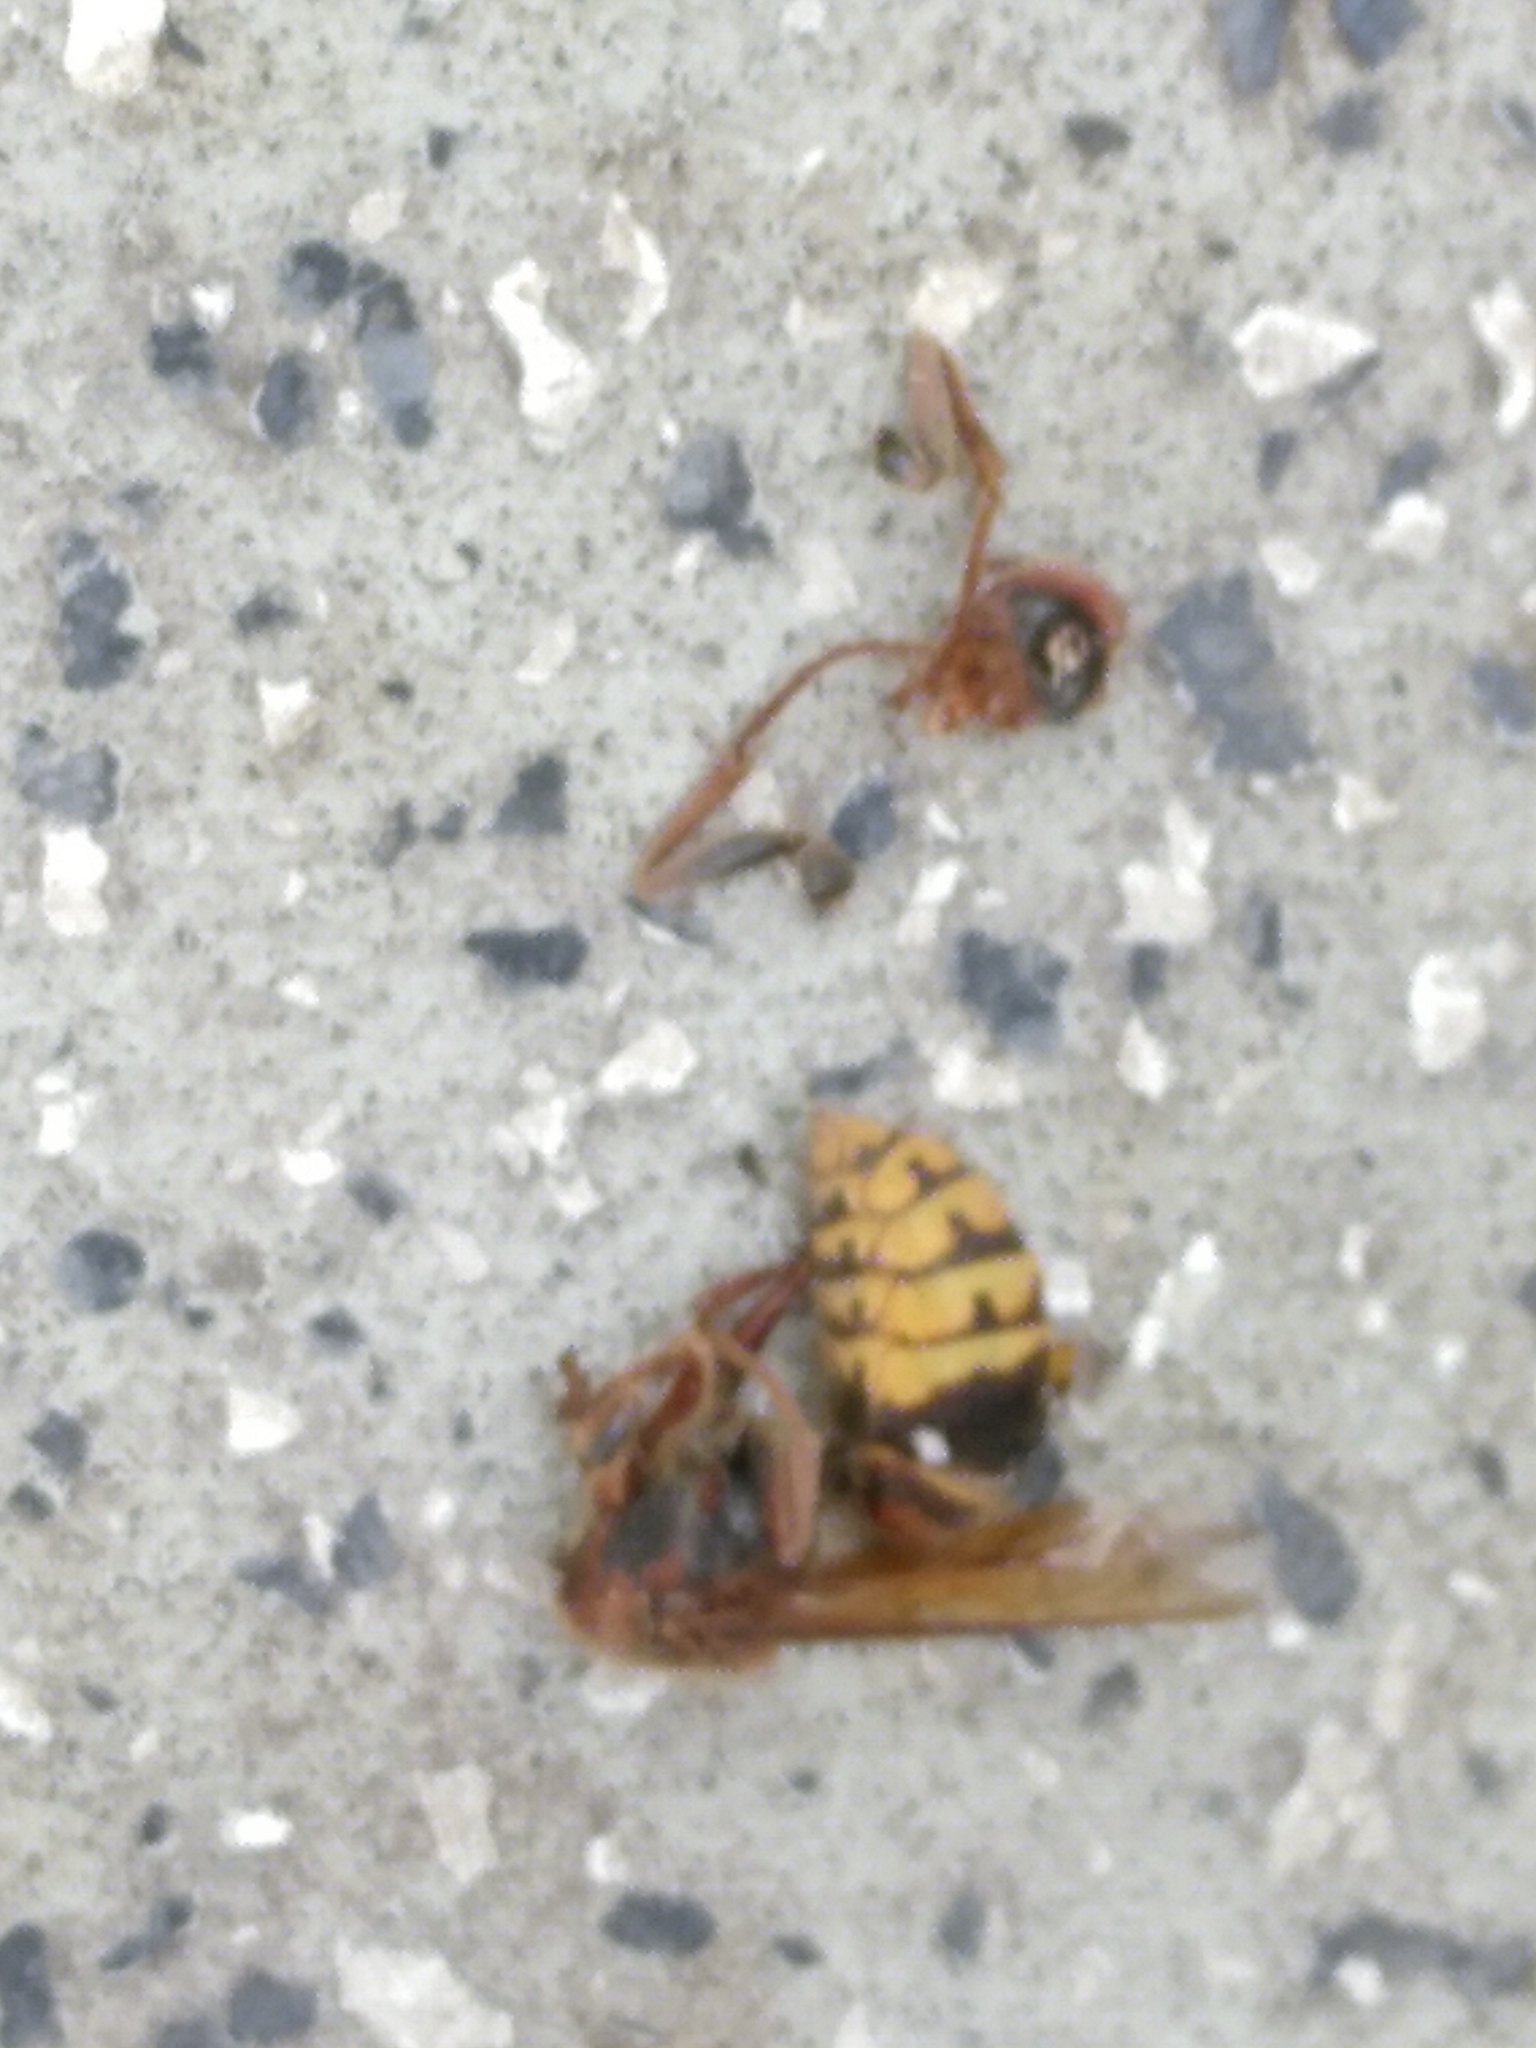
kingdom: Animalia
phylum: Arthropoda
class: Insecta
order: Hymenoptera
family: Vespidae
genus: Vespa
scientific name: Vespa crabro
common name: Hornet
